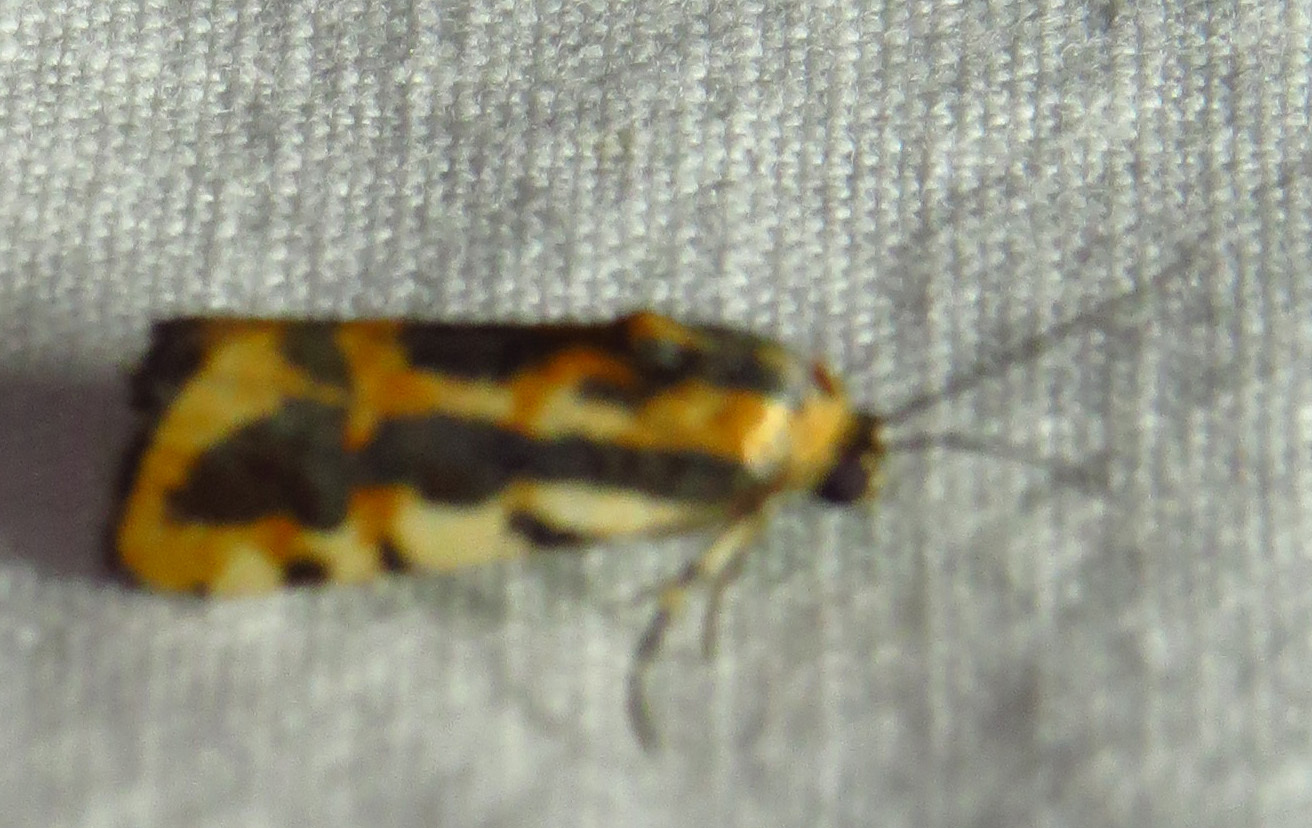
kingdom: Animalia
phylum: Arthropoda
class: Insecta
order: Lepidoptera
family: Noctuidae
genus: Acontia
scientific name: Acontia leo
